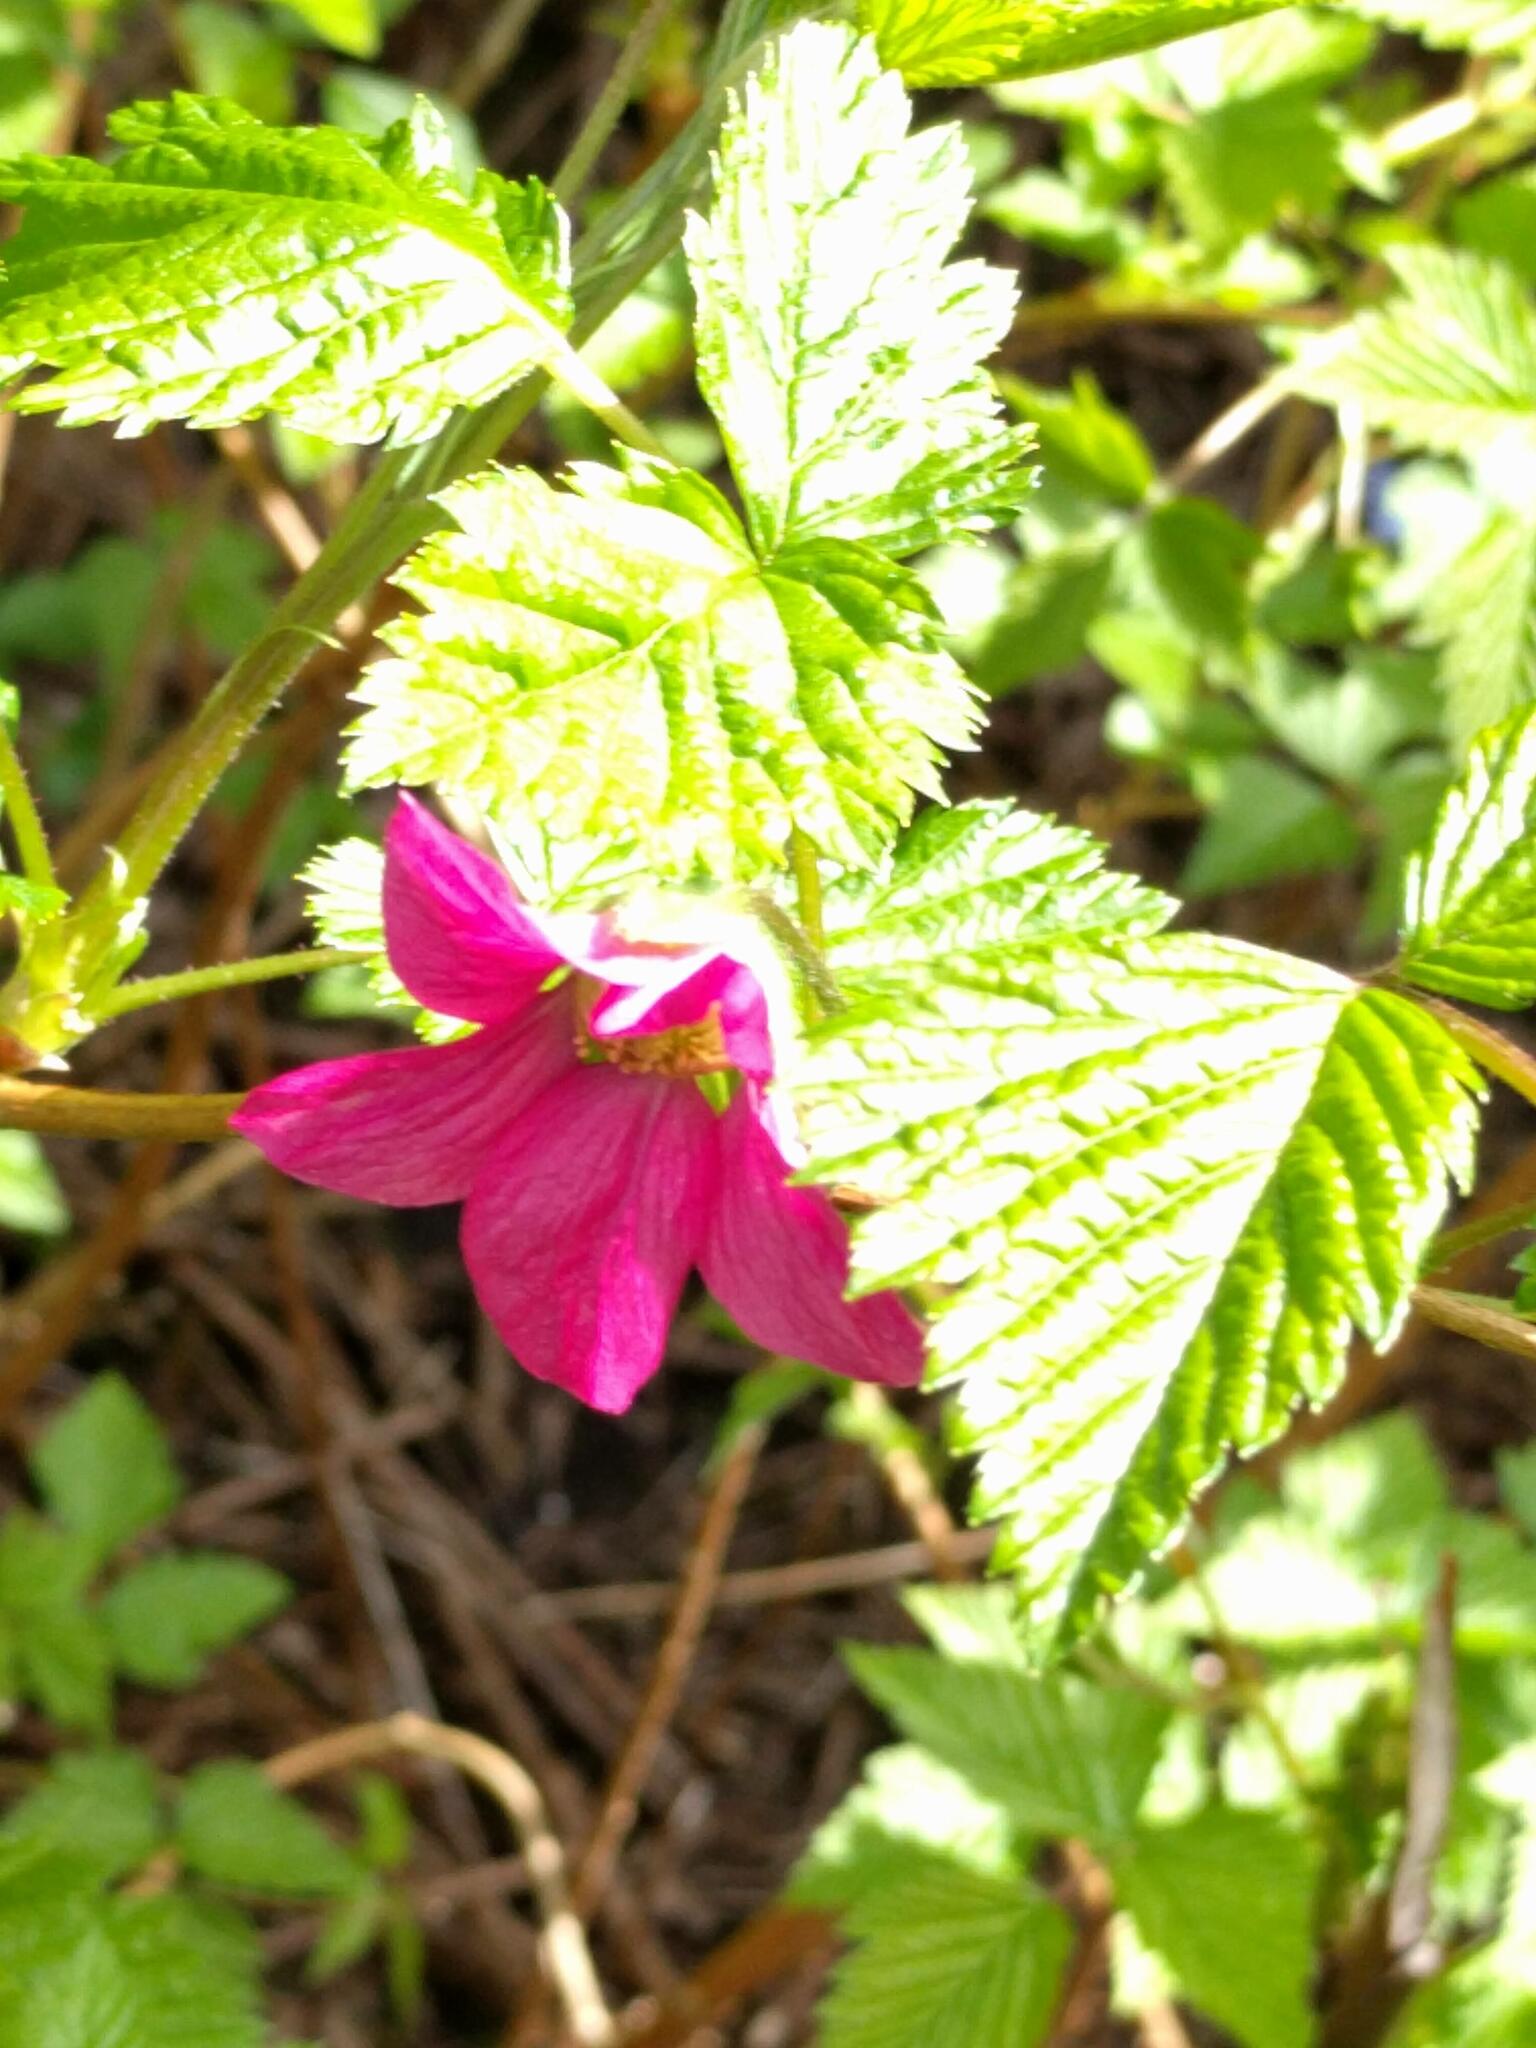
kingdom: Plantae
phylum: Tracheophyta
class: Magnoliopsida
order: Rosales
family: Rosaceae
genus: Rubus
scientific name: Rubus spectabilis
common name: Salmonberry
